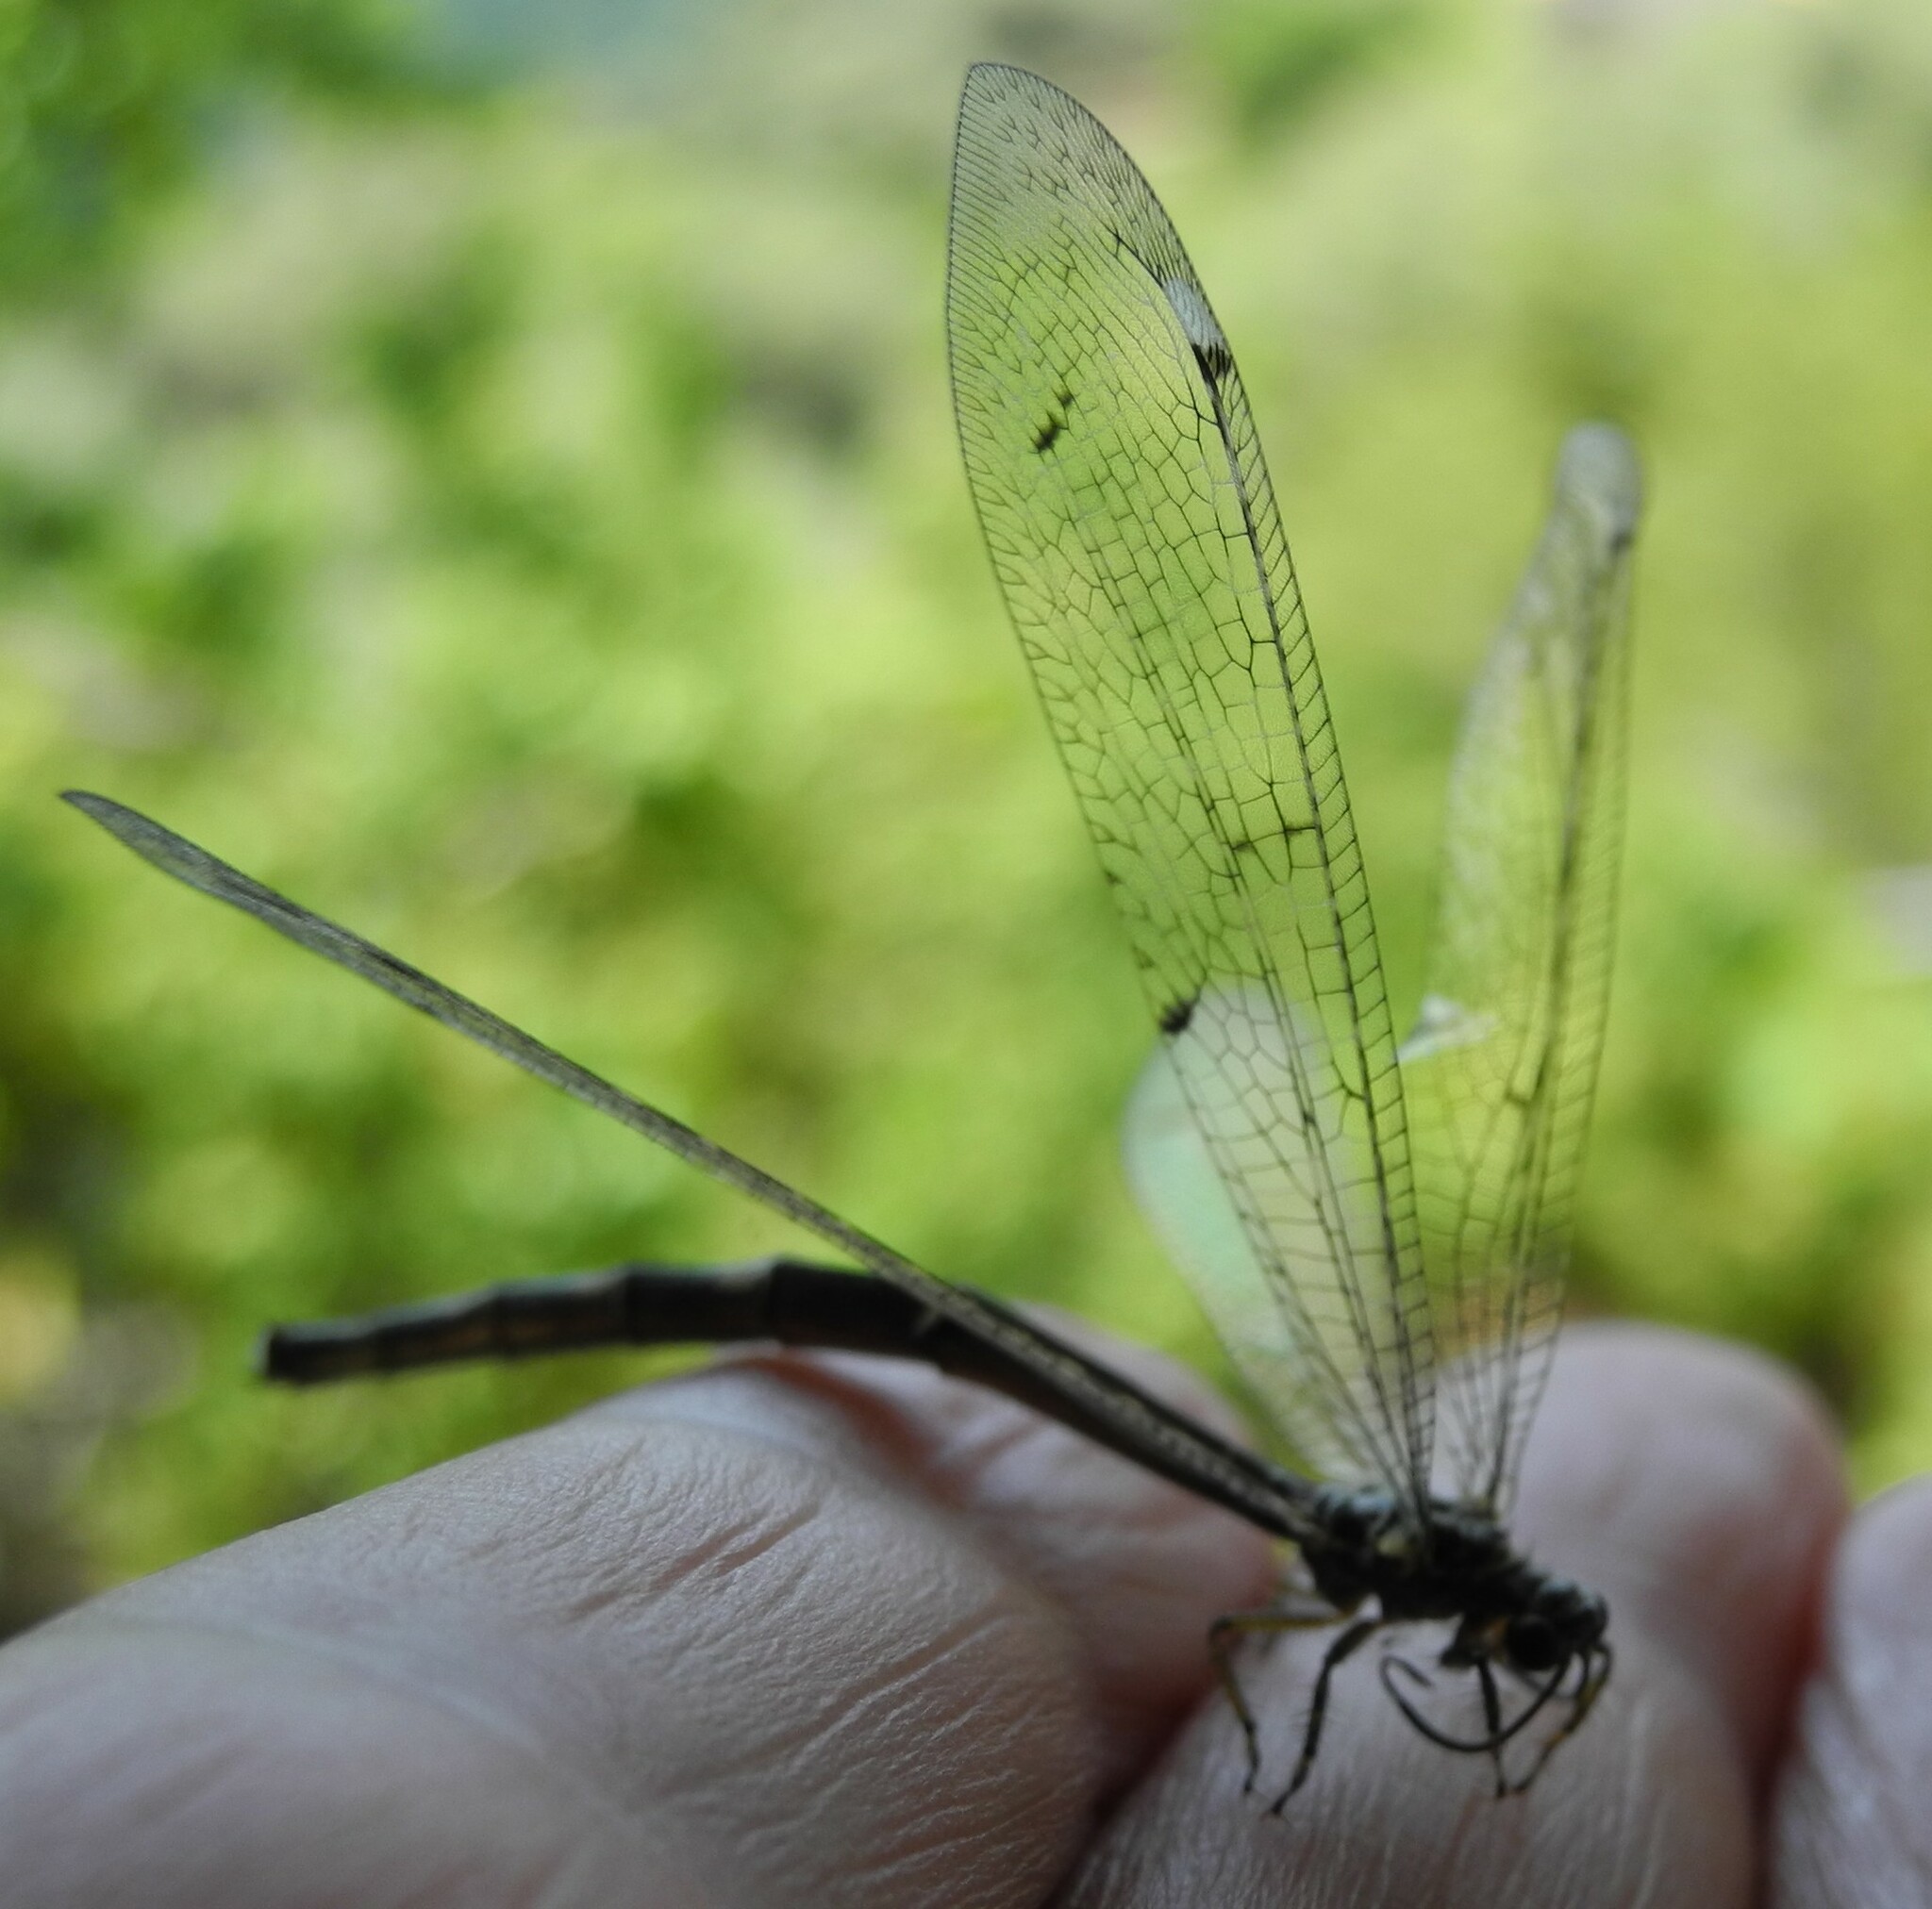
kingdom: Animalia
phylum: Arthropoda
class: Insecta
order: Neuroptera
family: Myrmeleontidae
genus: Distoleon
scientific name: Distoleon tetragrammicus
